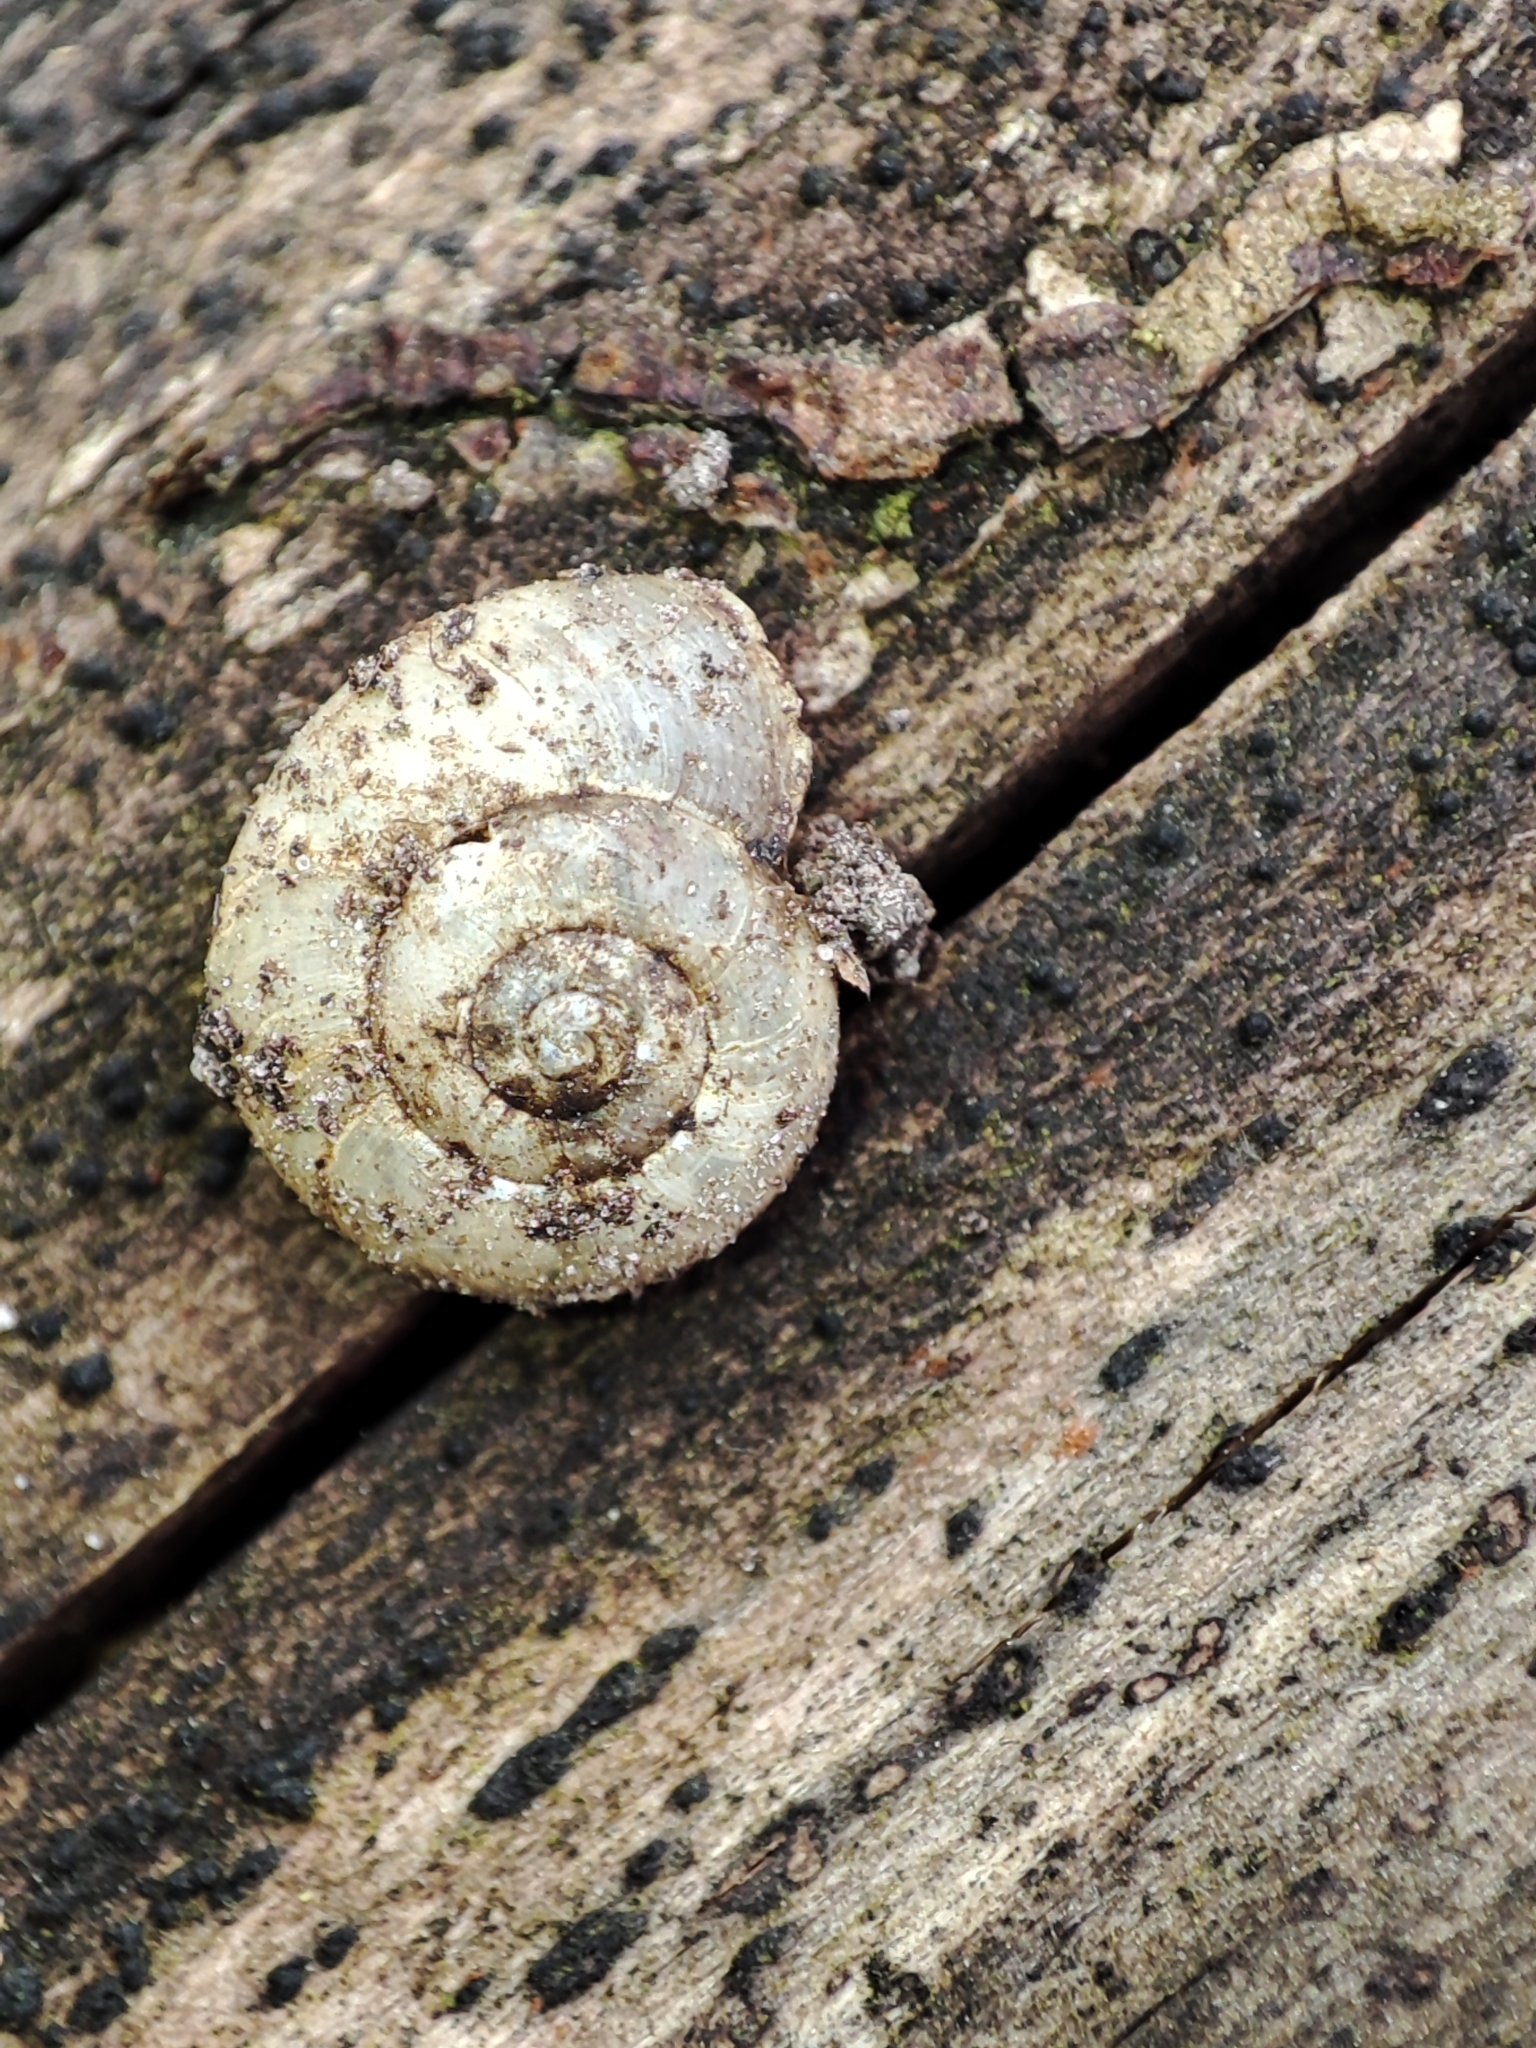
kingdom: Animalia
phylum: Mollusca
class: Gastropoda
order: Stylommatophora
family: Gastrodontidae
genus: Aegopinella
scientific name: Aegopinella minor
